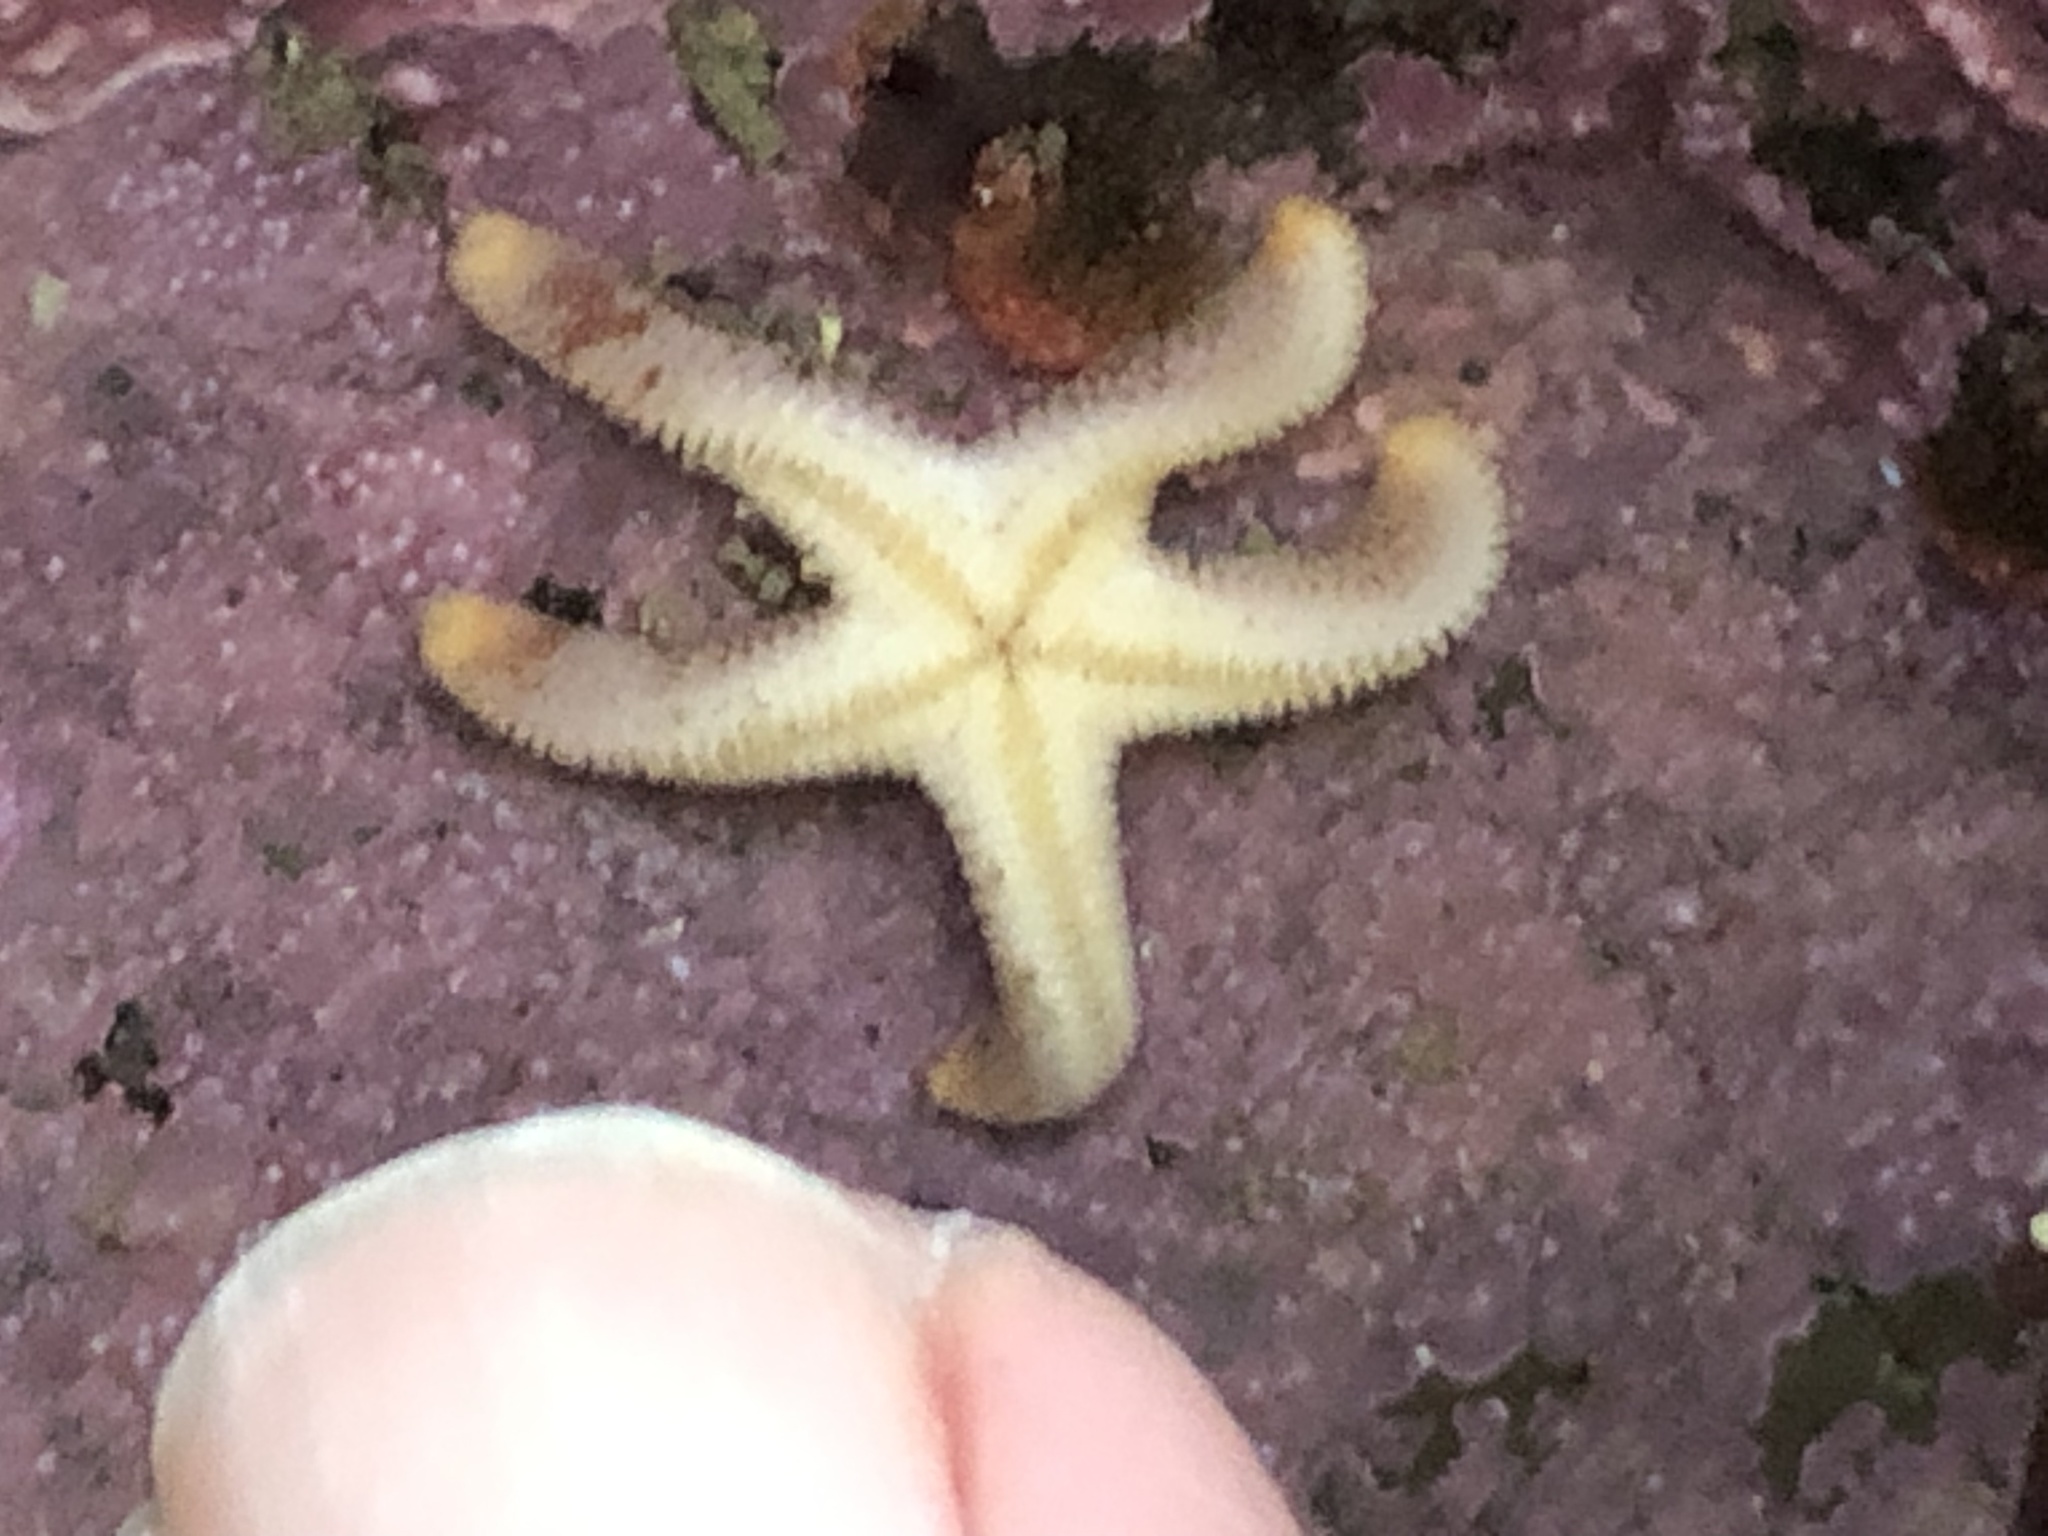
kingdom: Animalia
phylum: Echinodermata
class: Asteroidea
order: Spinulosida
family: Echinasteridae
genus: Henricia
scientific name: Henricia pumila
